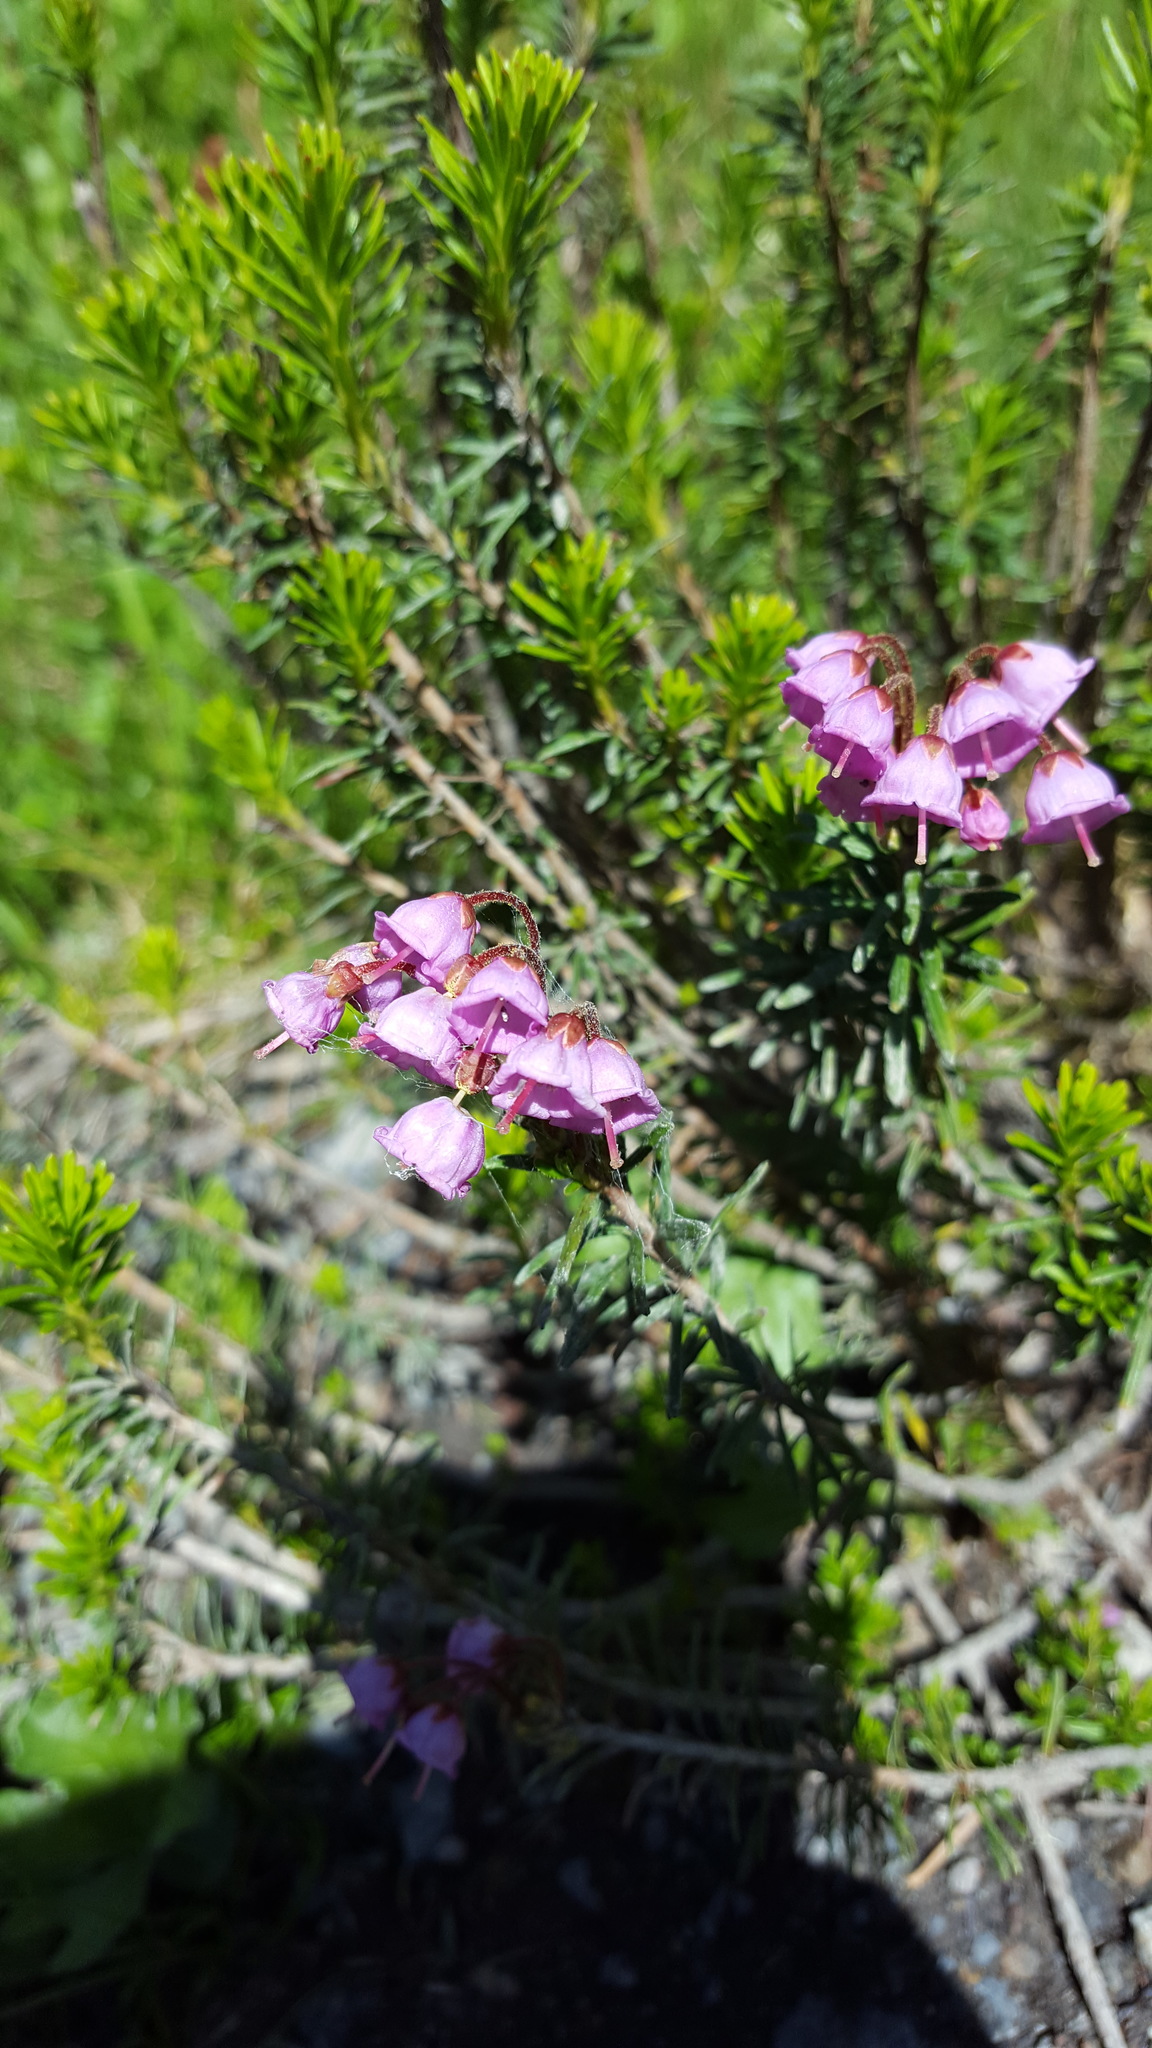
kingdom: Plantae
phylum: Tracheophyta
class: Magnoliopsida
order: Ericales
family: Ericaceae
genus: Phyllodoce
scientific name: Phyllodoce empetriformis
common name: Pink mountain heather
